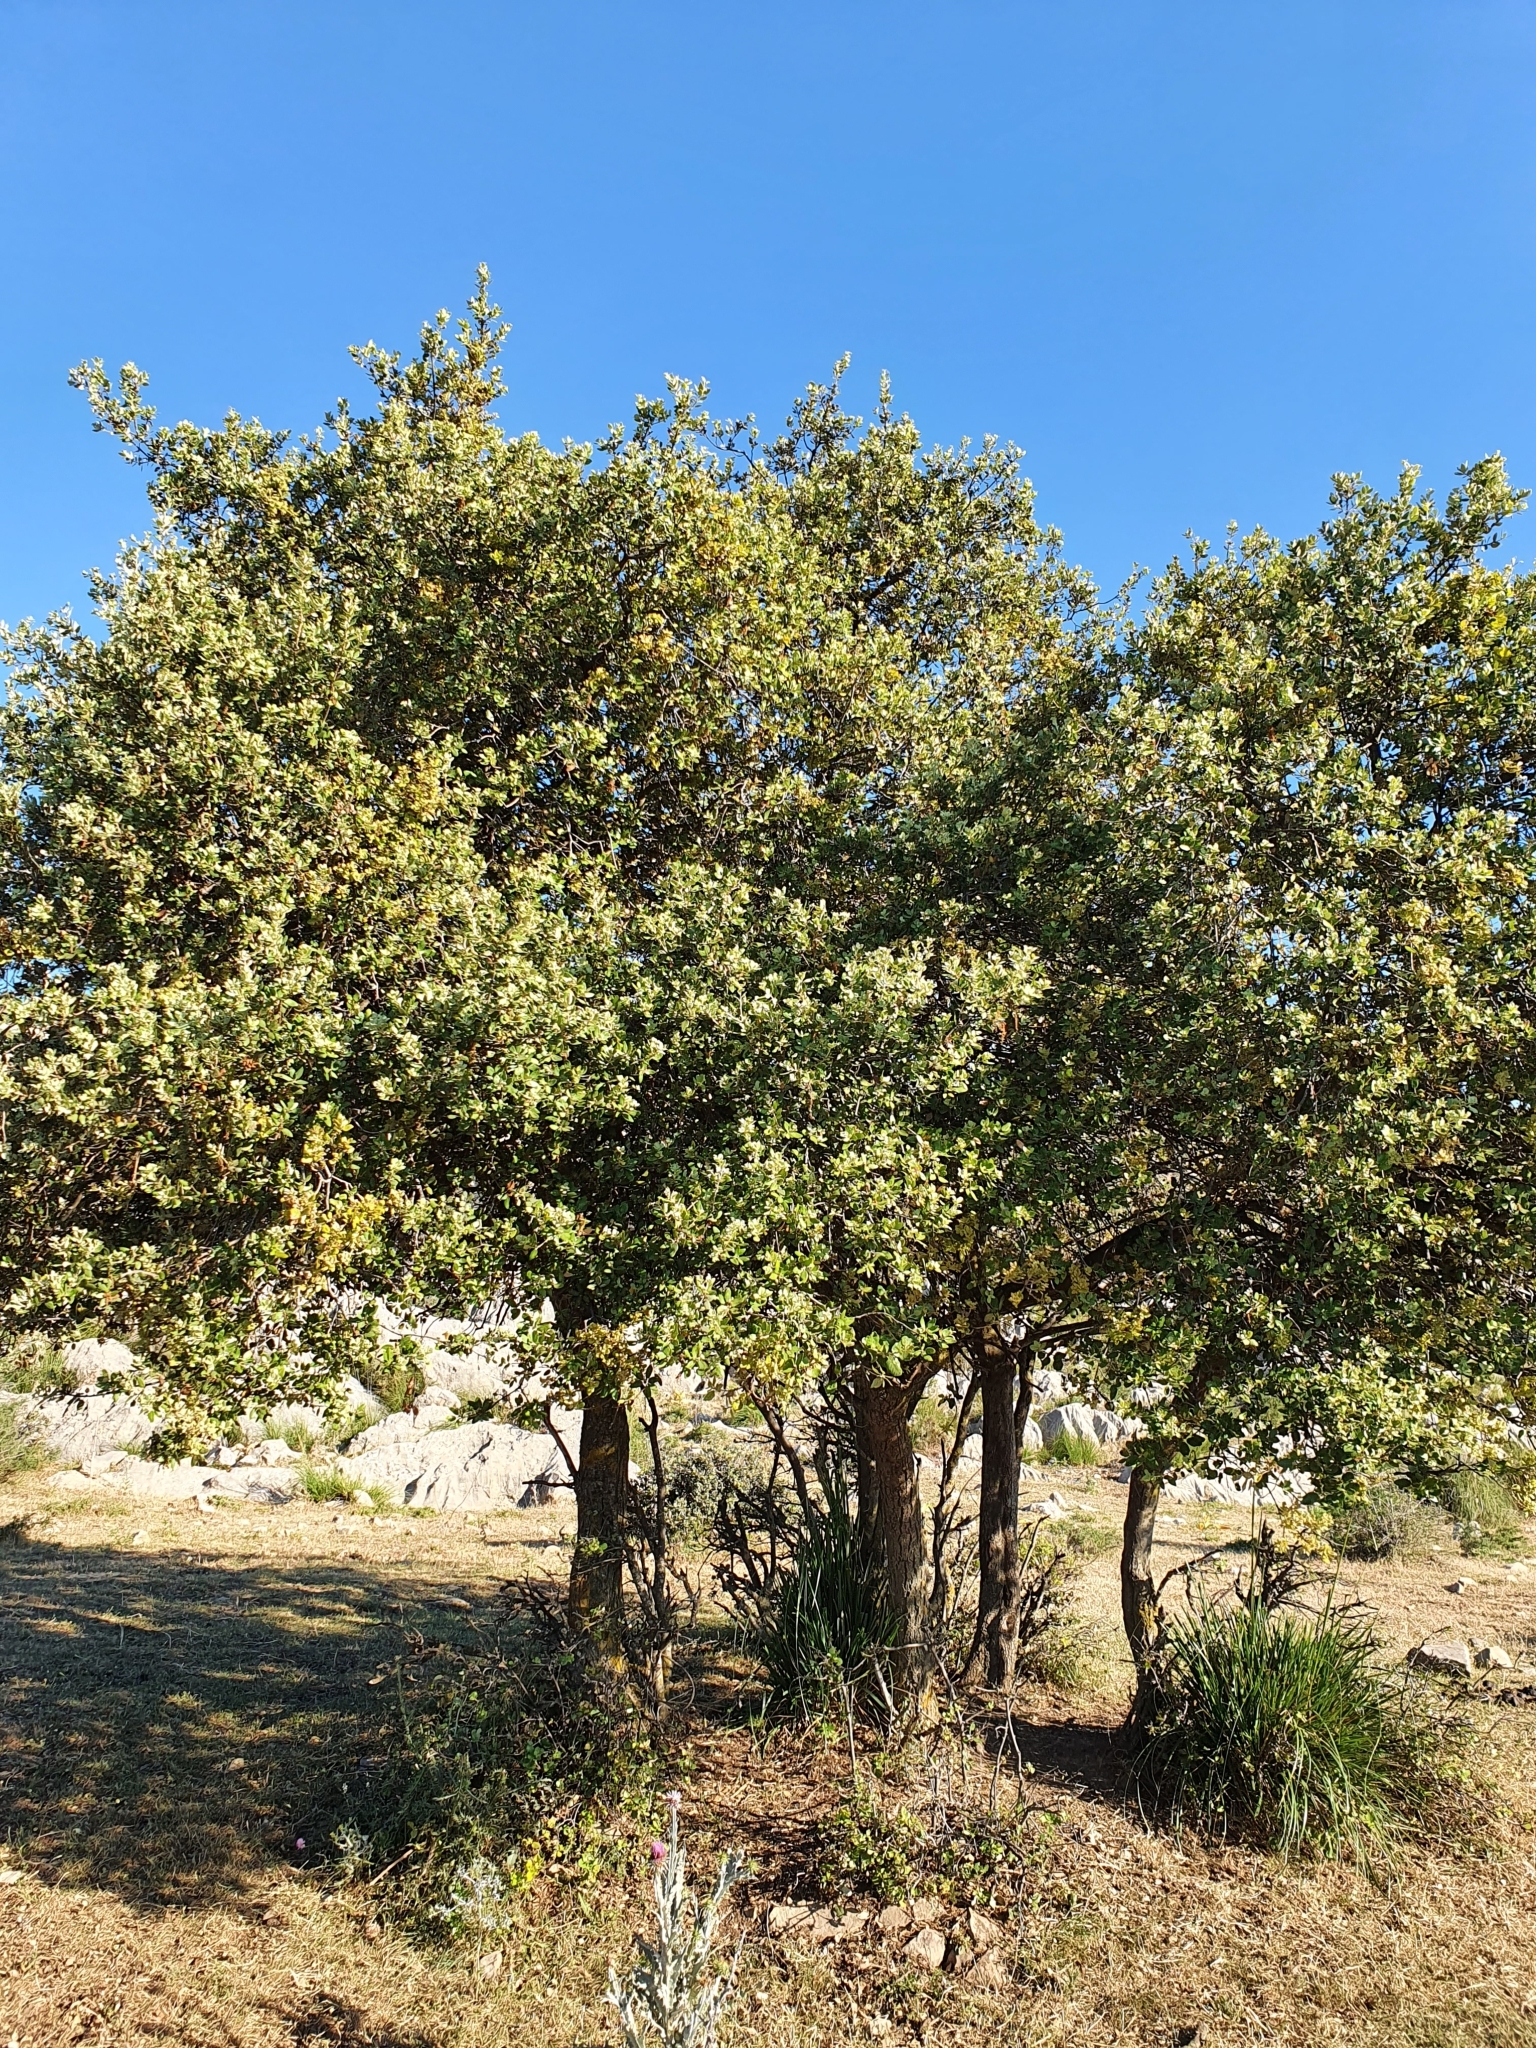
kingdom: Plantae
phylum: Tracheophyta
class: Magnoliopsida
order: Fagales
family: Fagaceae
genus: Quercus
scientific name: Quercus rotundifolia
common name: Holm oak
